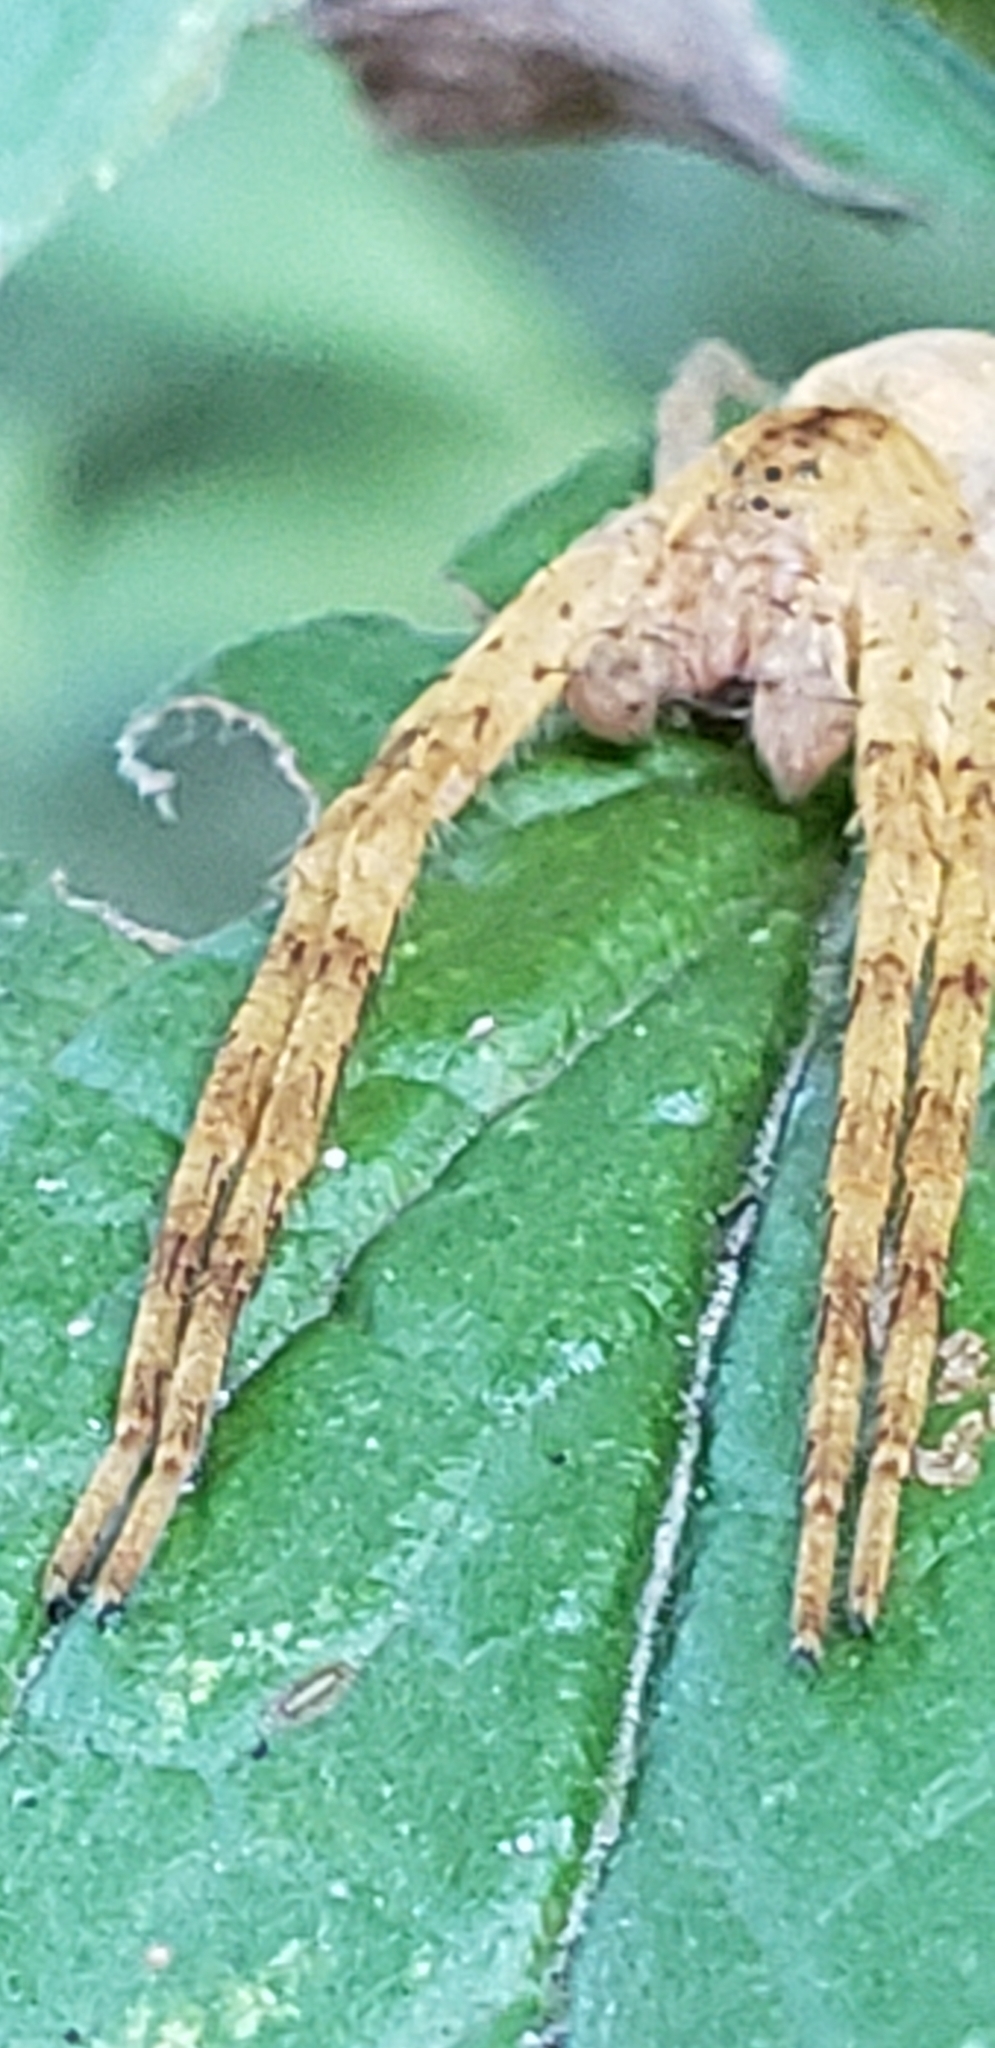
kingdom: Animalia
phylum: Arthropoda
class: Arachnida
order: Araneae
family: Pisauridae
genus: Pisaurina
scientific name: Pisaurina mira
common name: American nursery web spider
